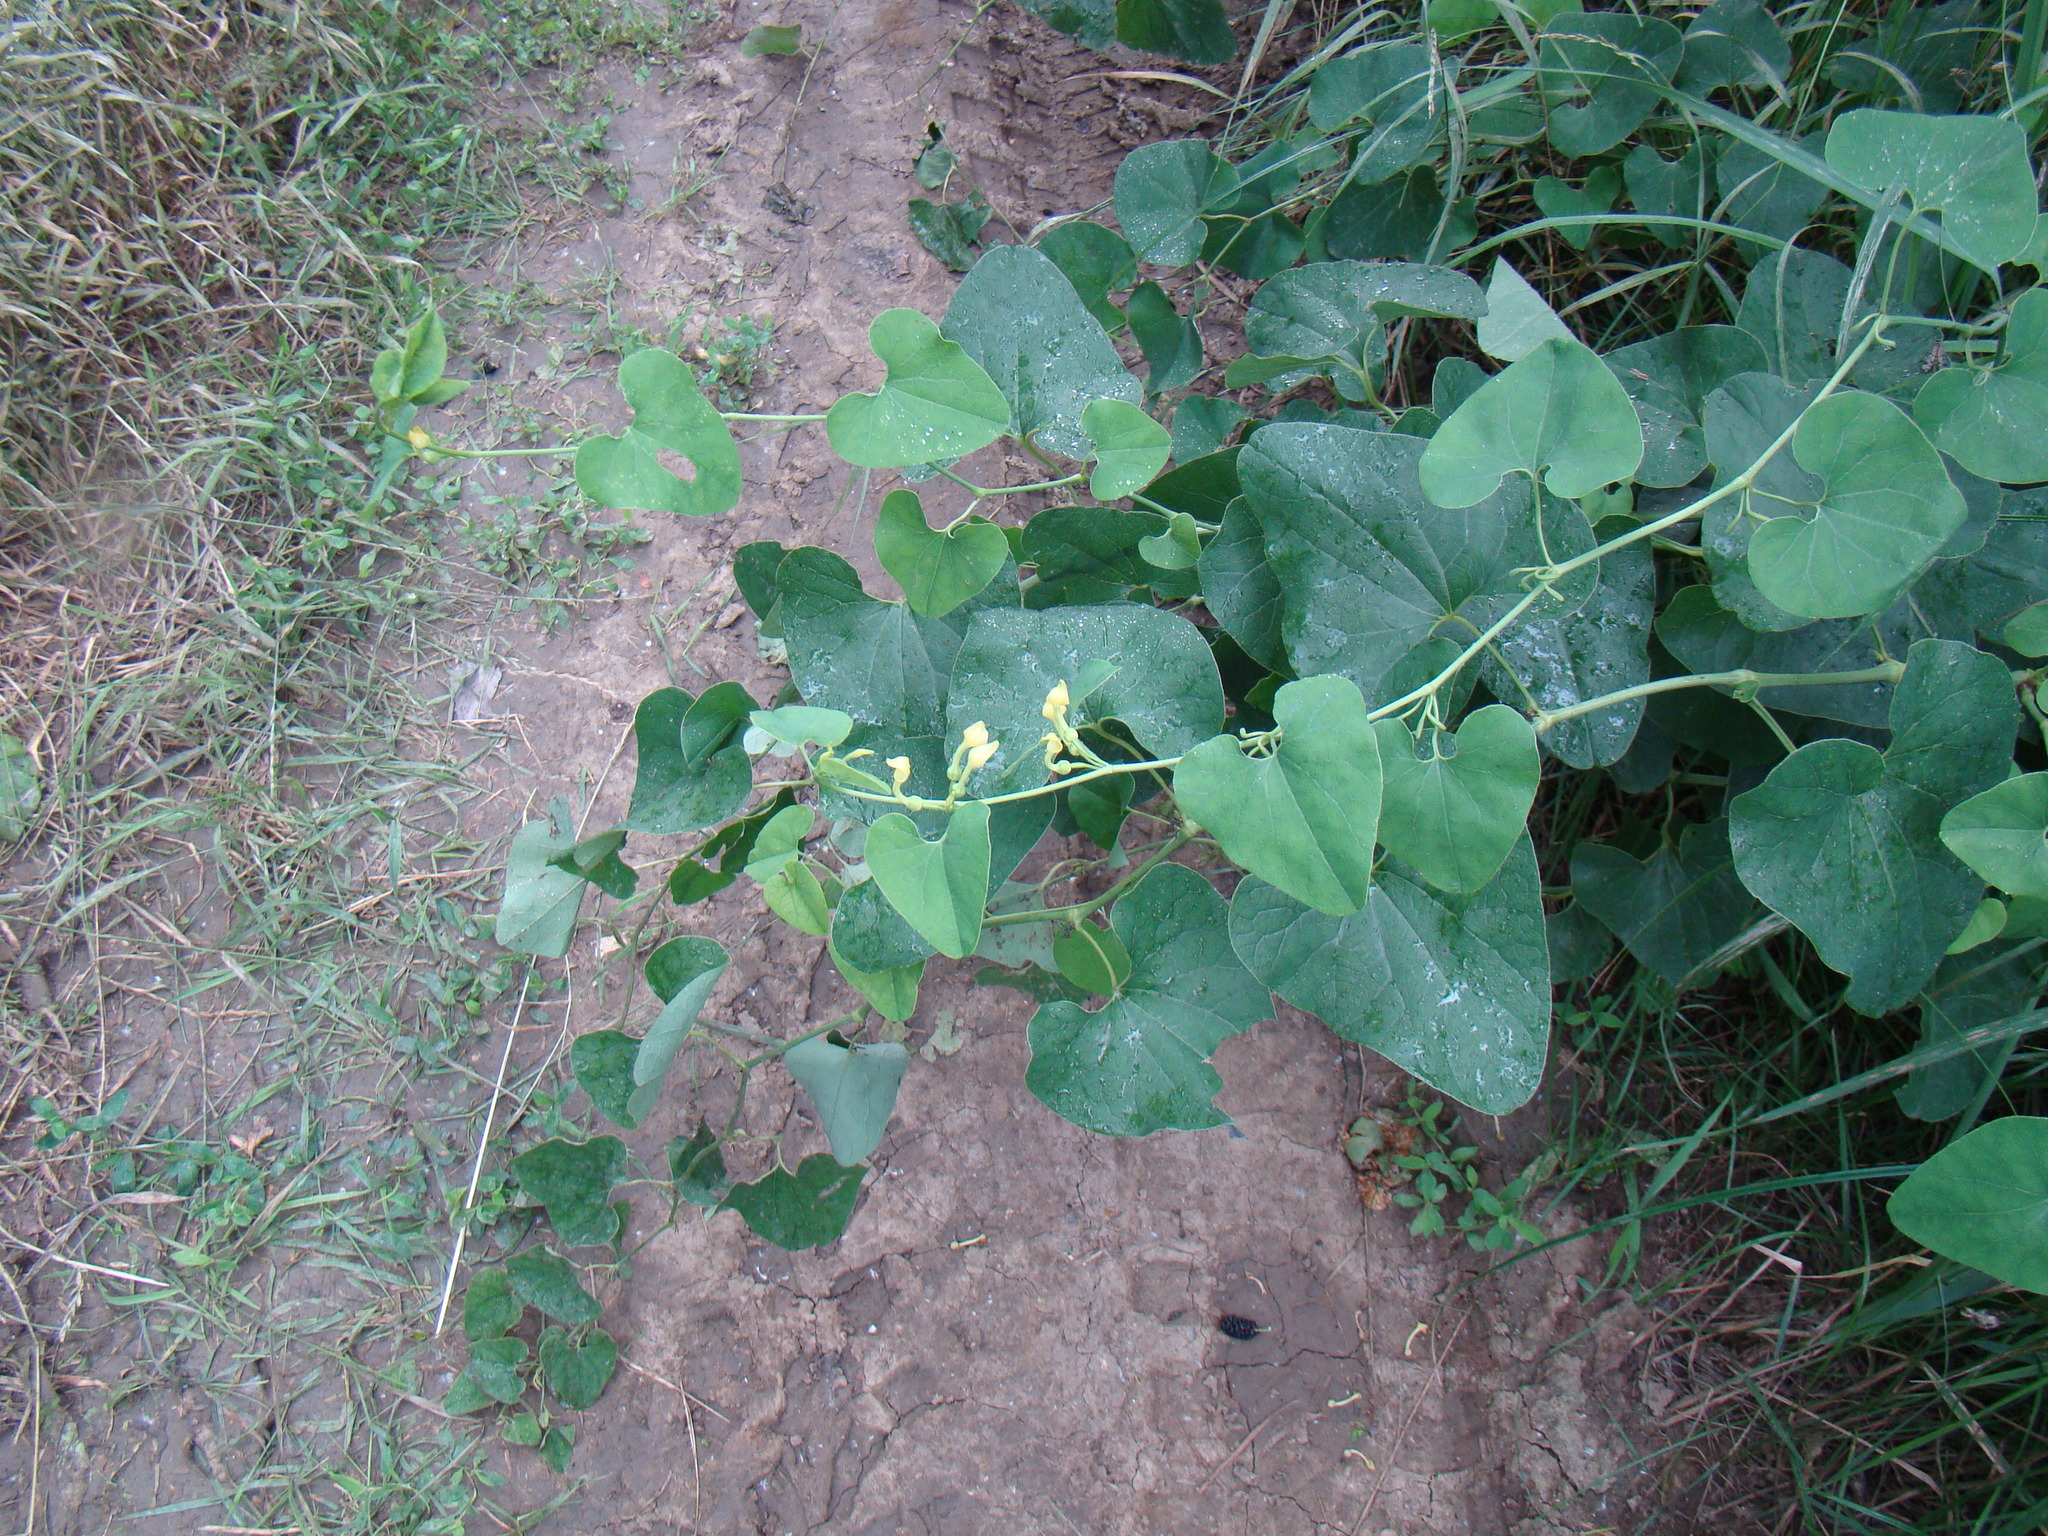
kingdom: Plantae
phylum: Tracheophyta
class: Magnoliopsida
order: Piperales
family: Aristolochiaceae
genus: Aristolochia
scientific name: Aristolochia clematitis
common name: Birthwort
